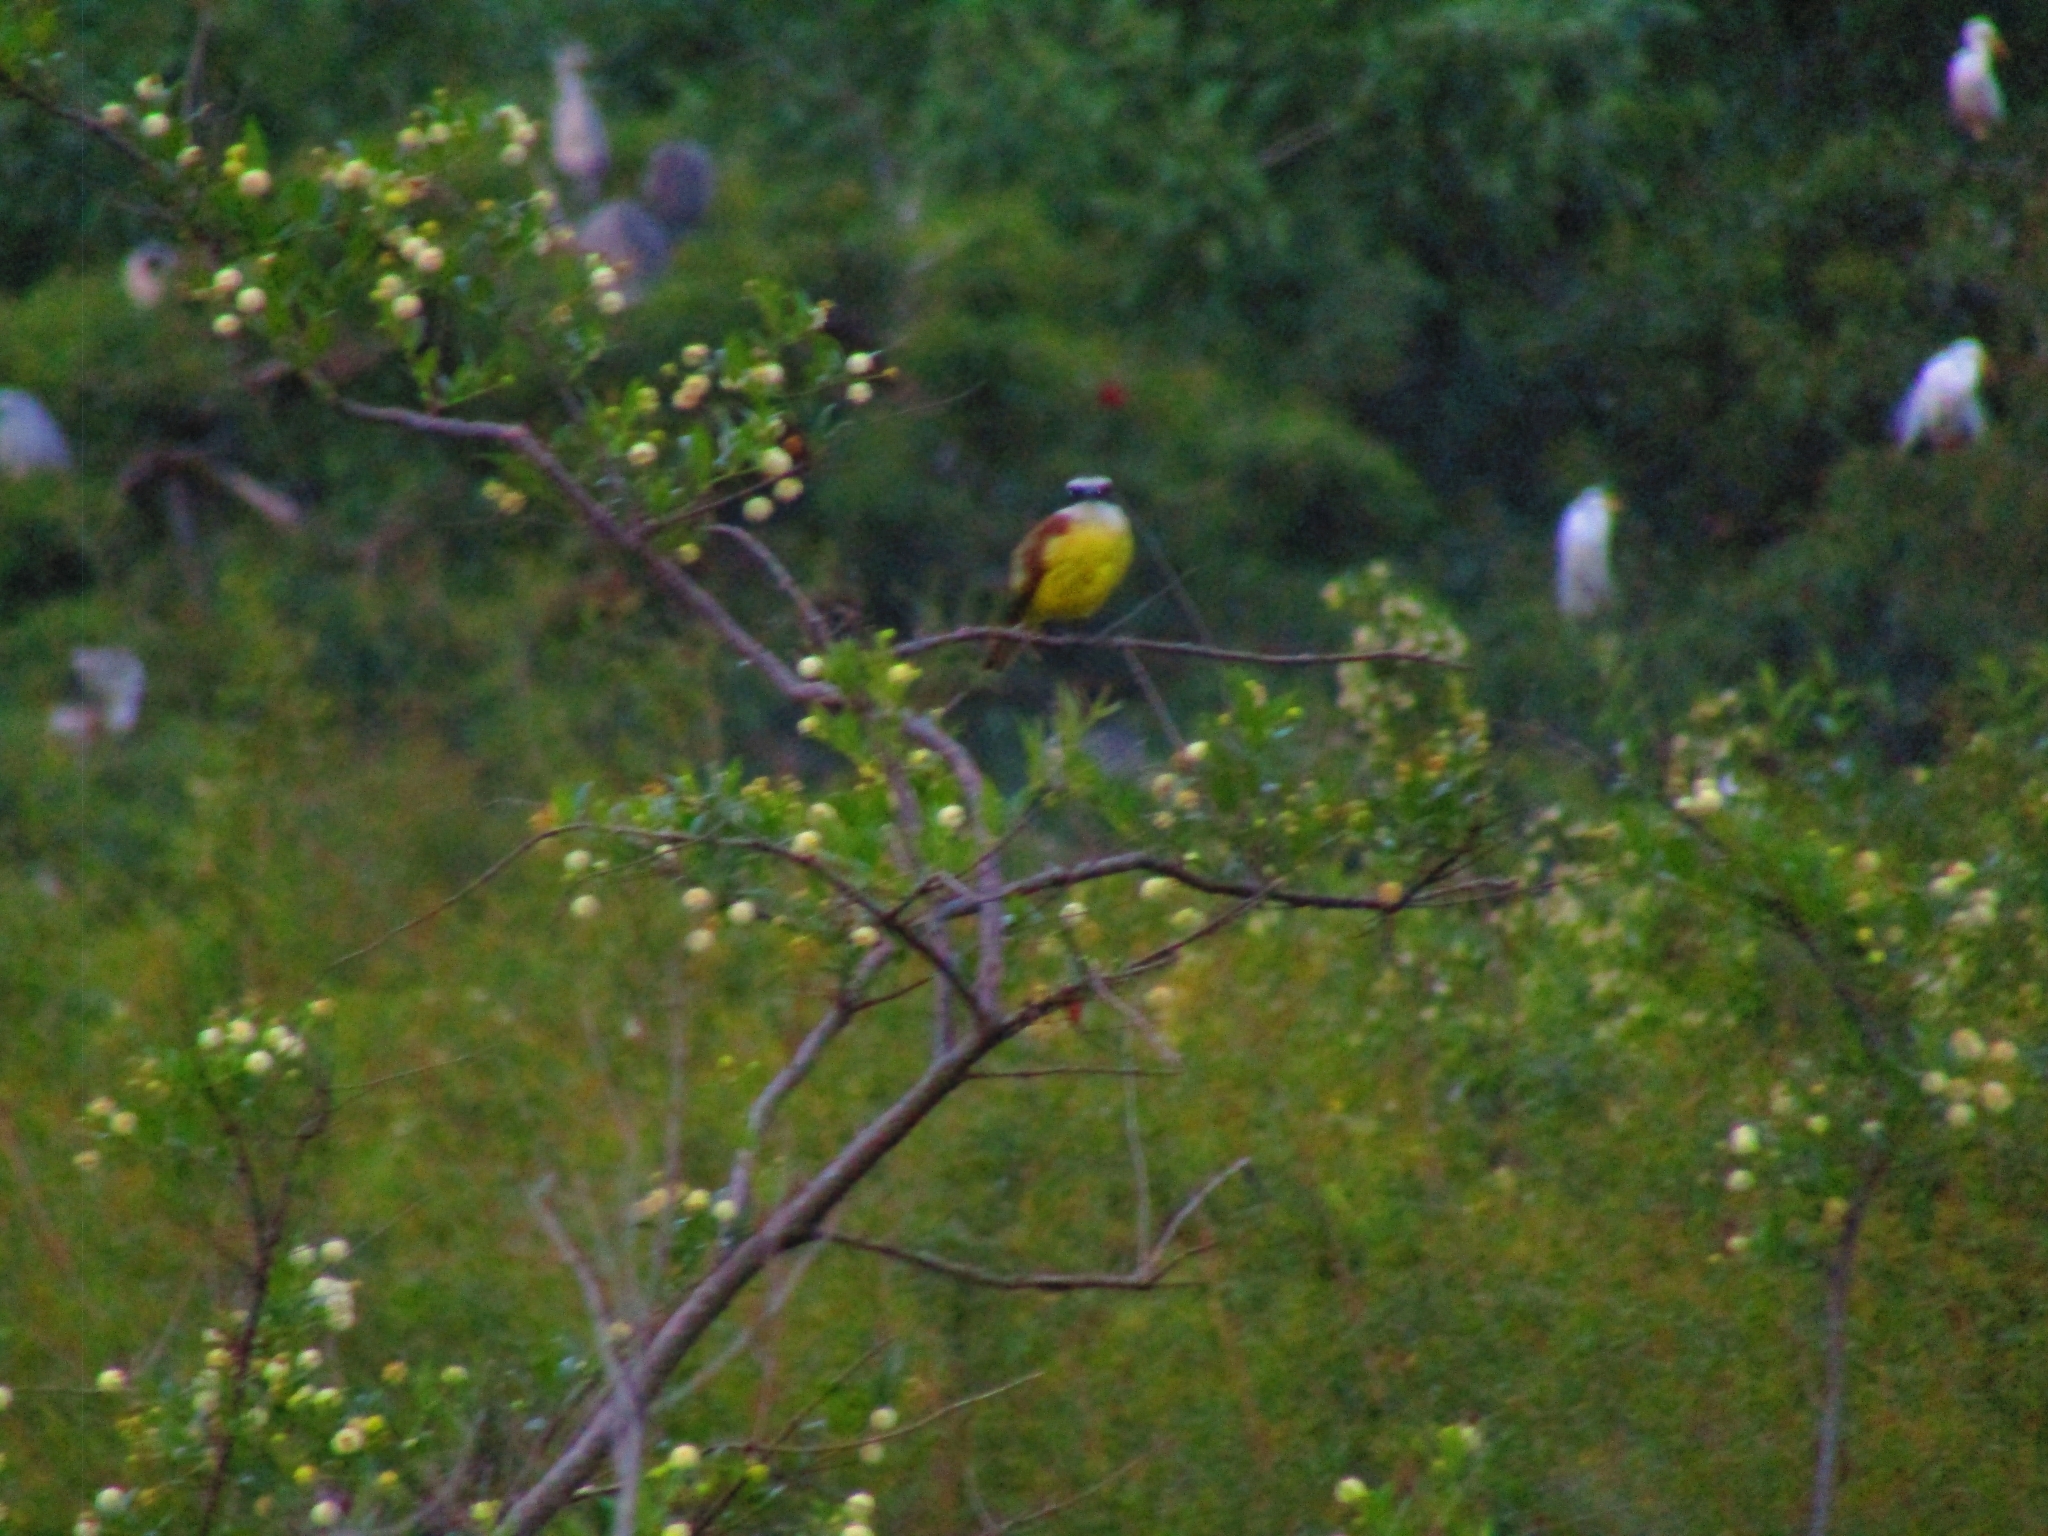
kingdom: Animalia
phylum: Chordata
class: Aves
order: Passeriformes
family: Tyrannidae
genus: Pitangus
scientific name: Pitangus sulphuratus
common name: Great kiskadee
